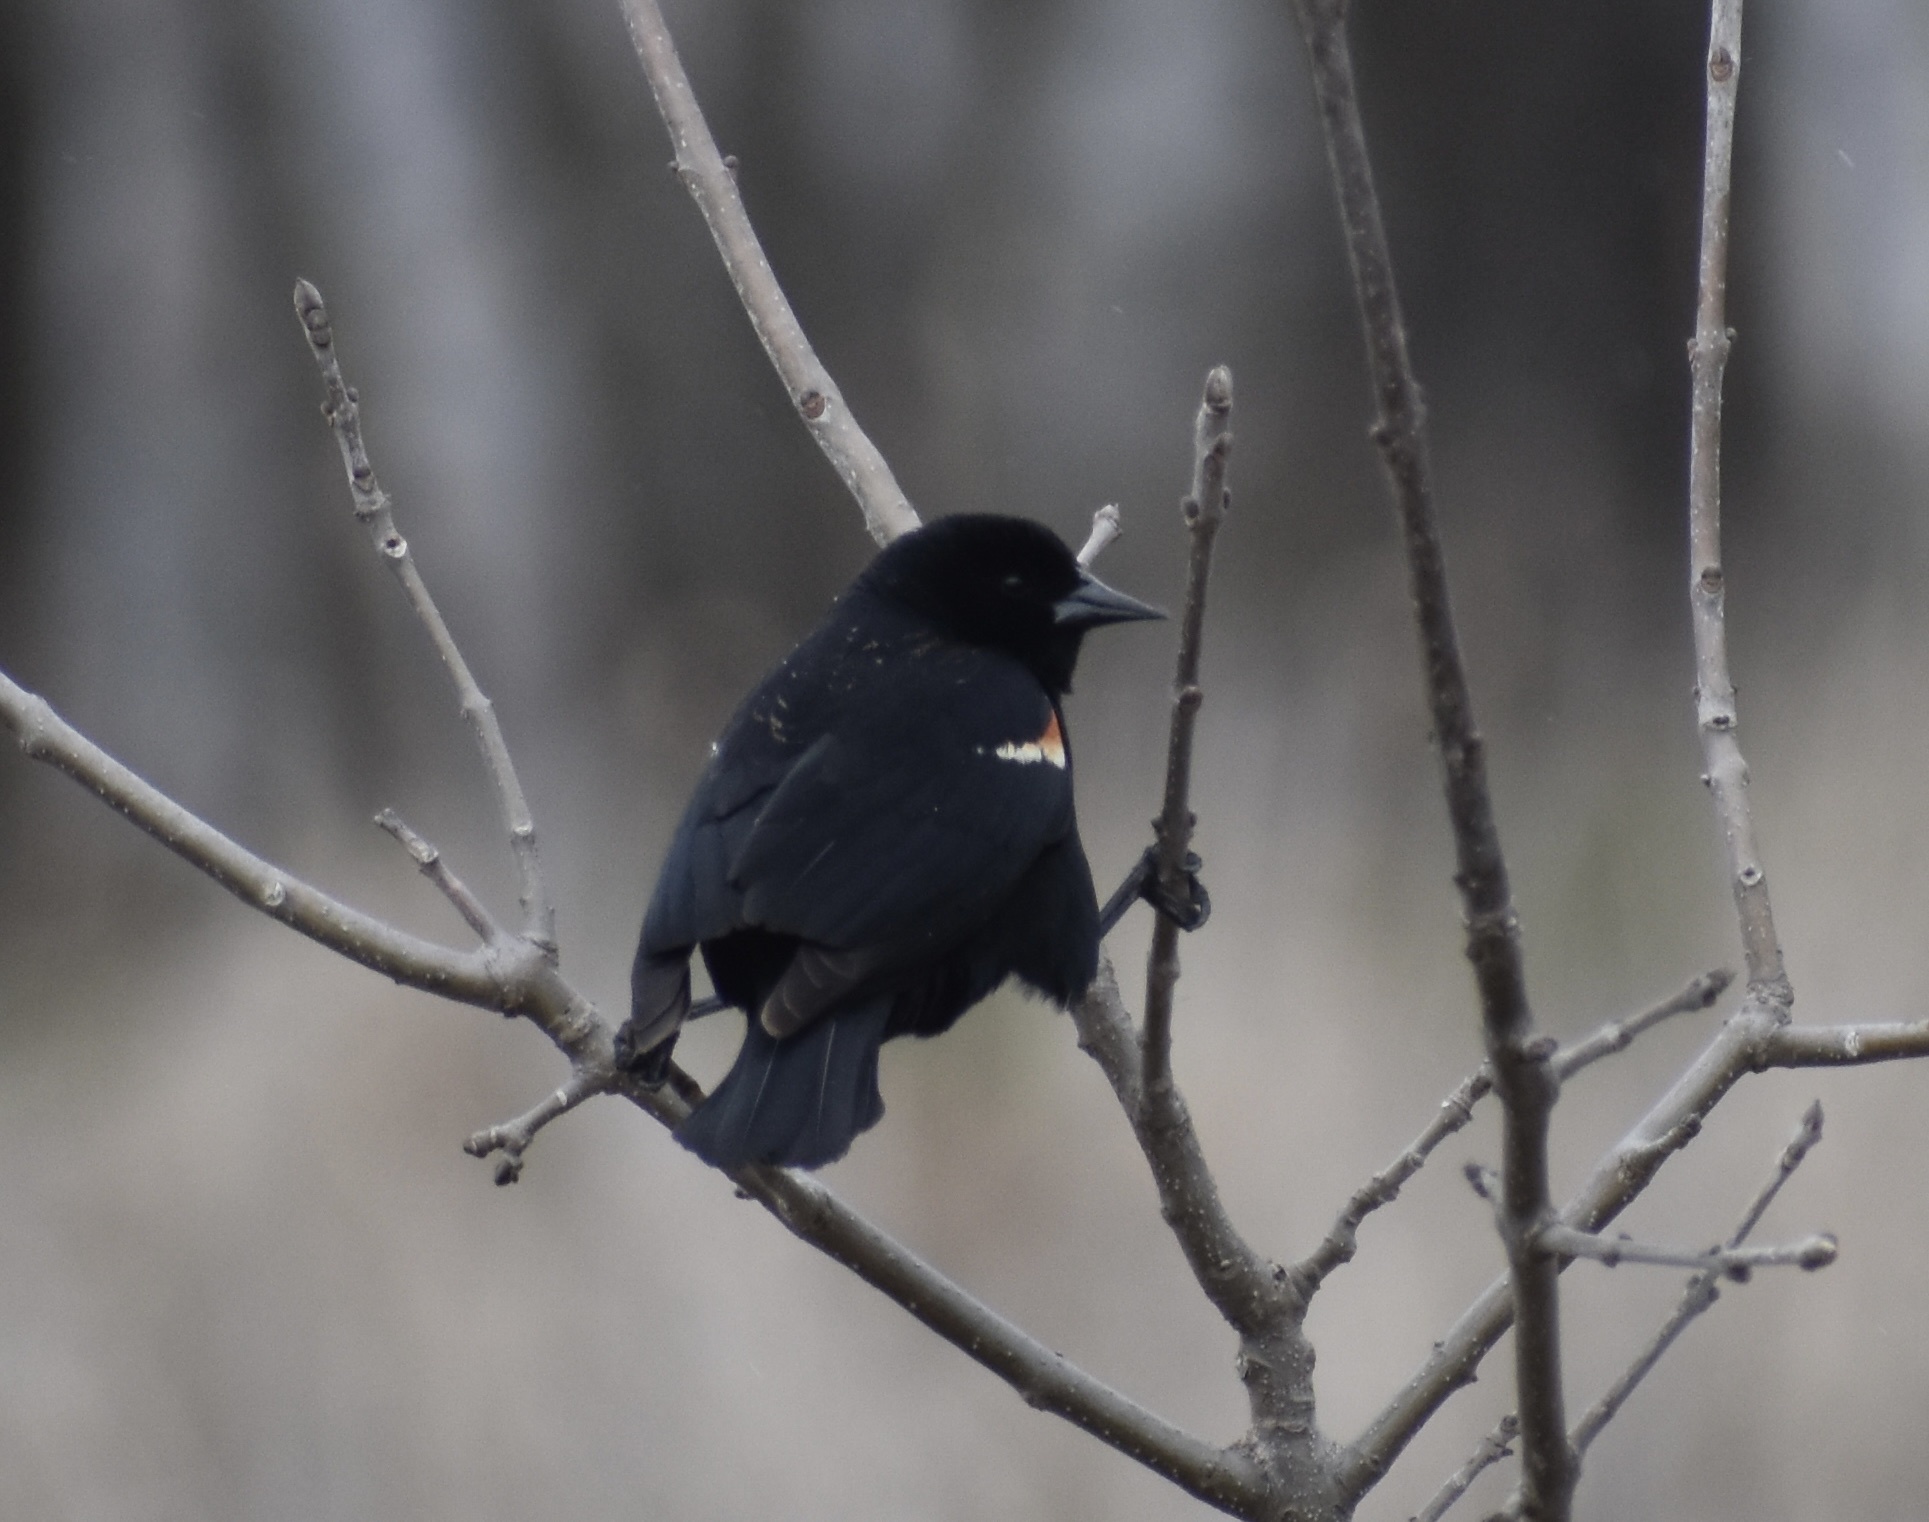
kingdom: Animalia
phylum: Chordata
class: Aves
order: Passeriformes
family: Icteridae
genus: Agelaius
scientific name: Agelaius phoeniceus
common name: Red-winged blackbird
